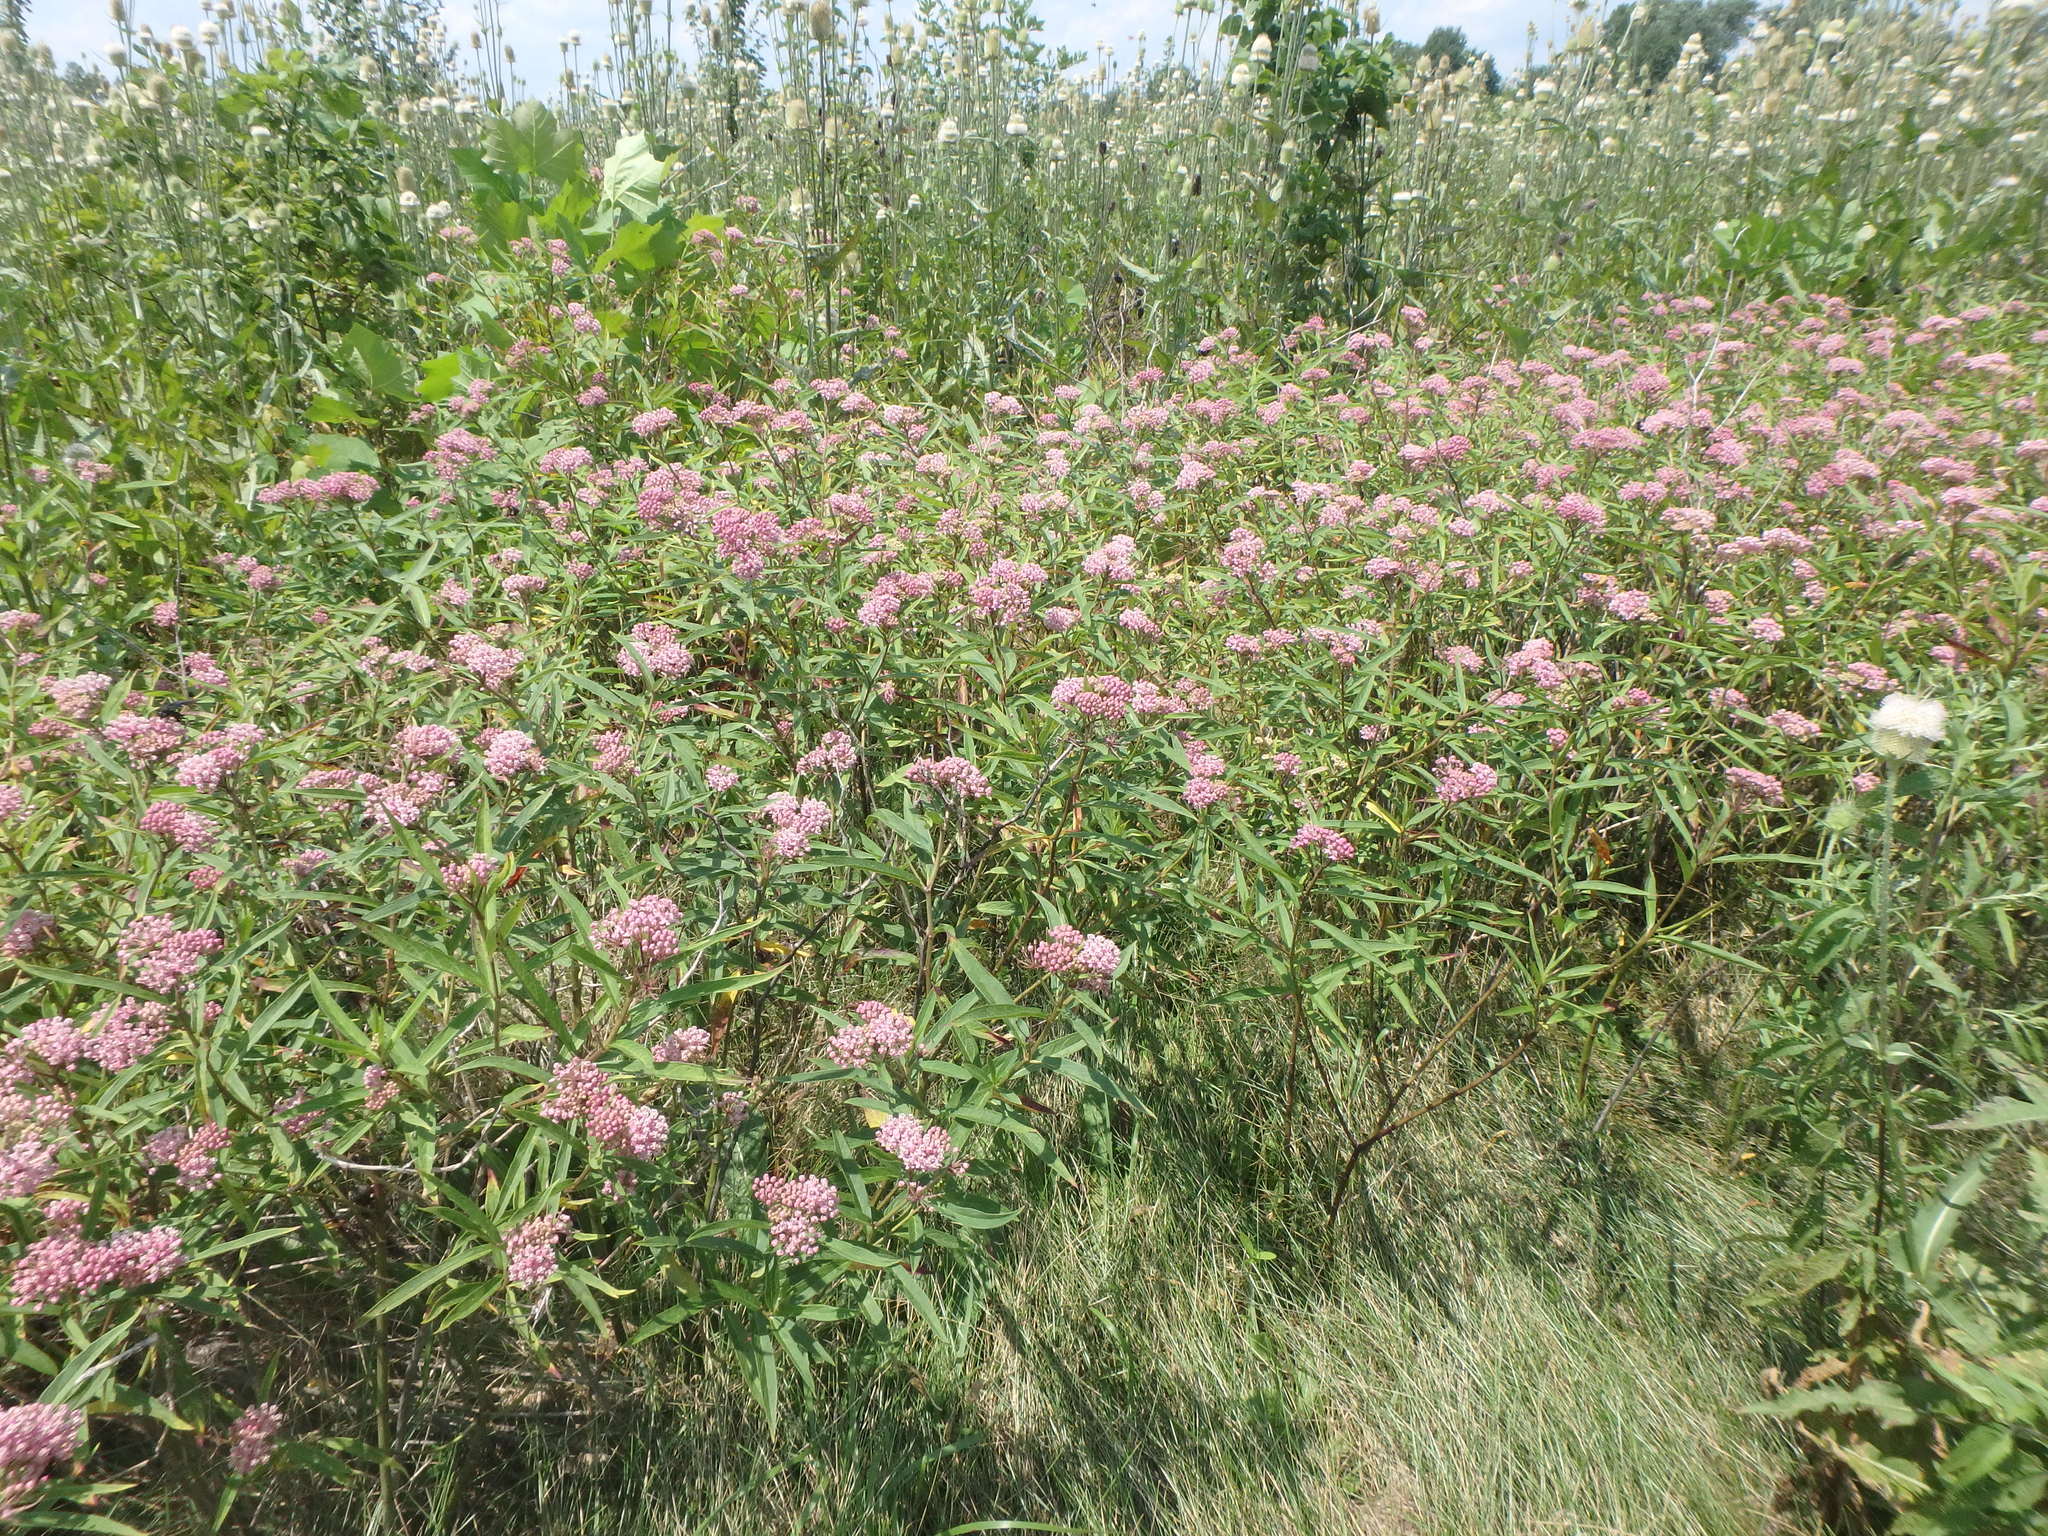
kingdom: Plantae
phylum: Tracheophyta
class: Magnoliopsida
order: Gentianales
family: Apocynaceae
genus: Asclepias
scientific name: Asclepias incarnata
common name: Swamp milkweed
